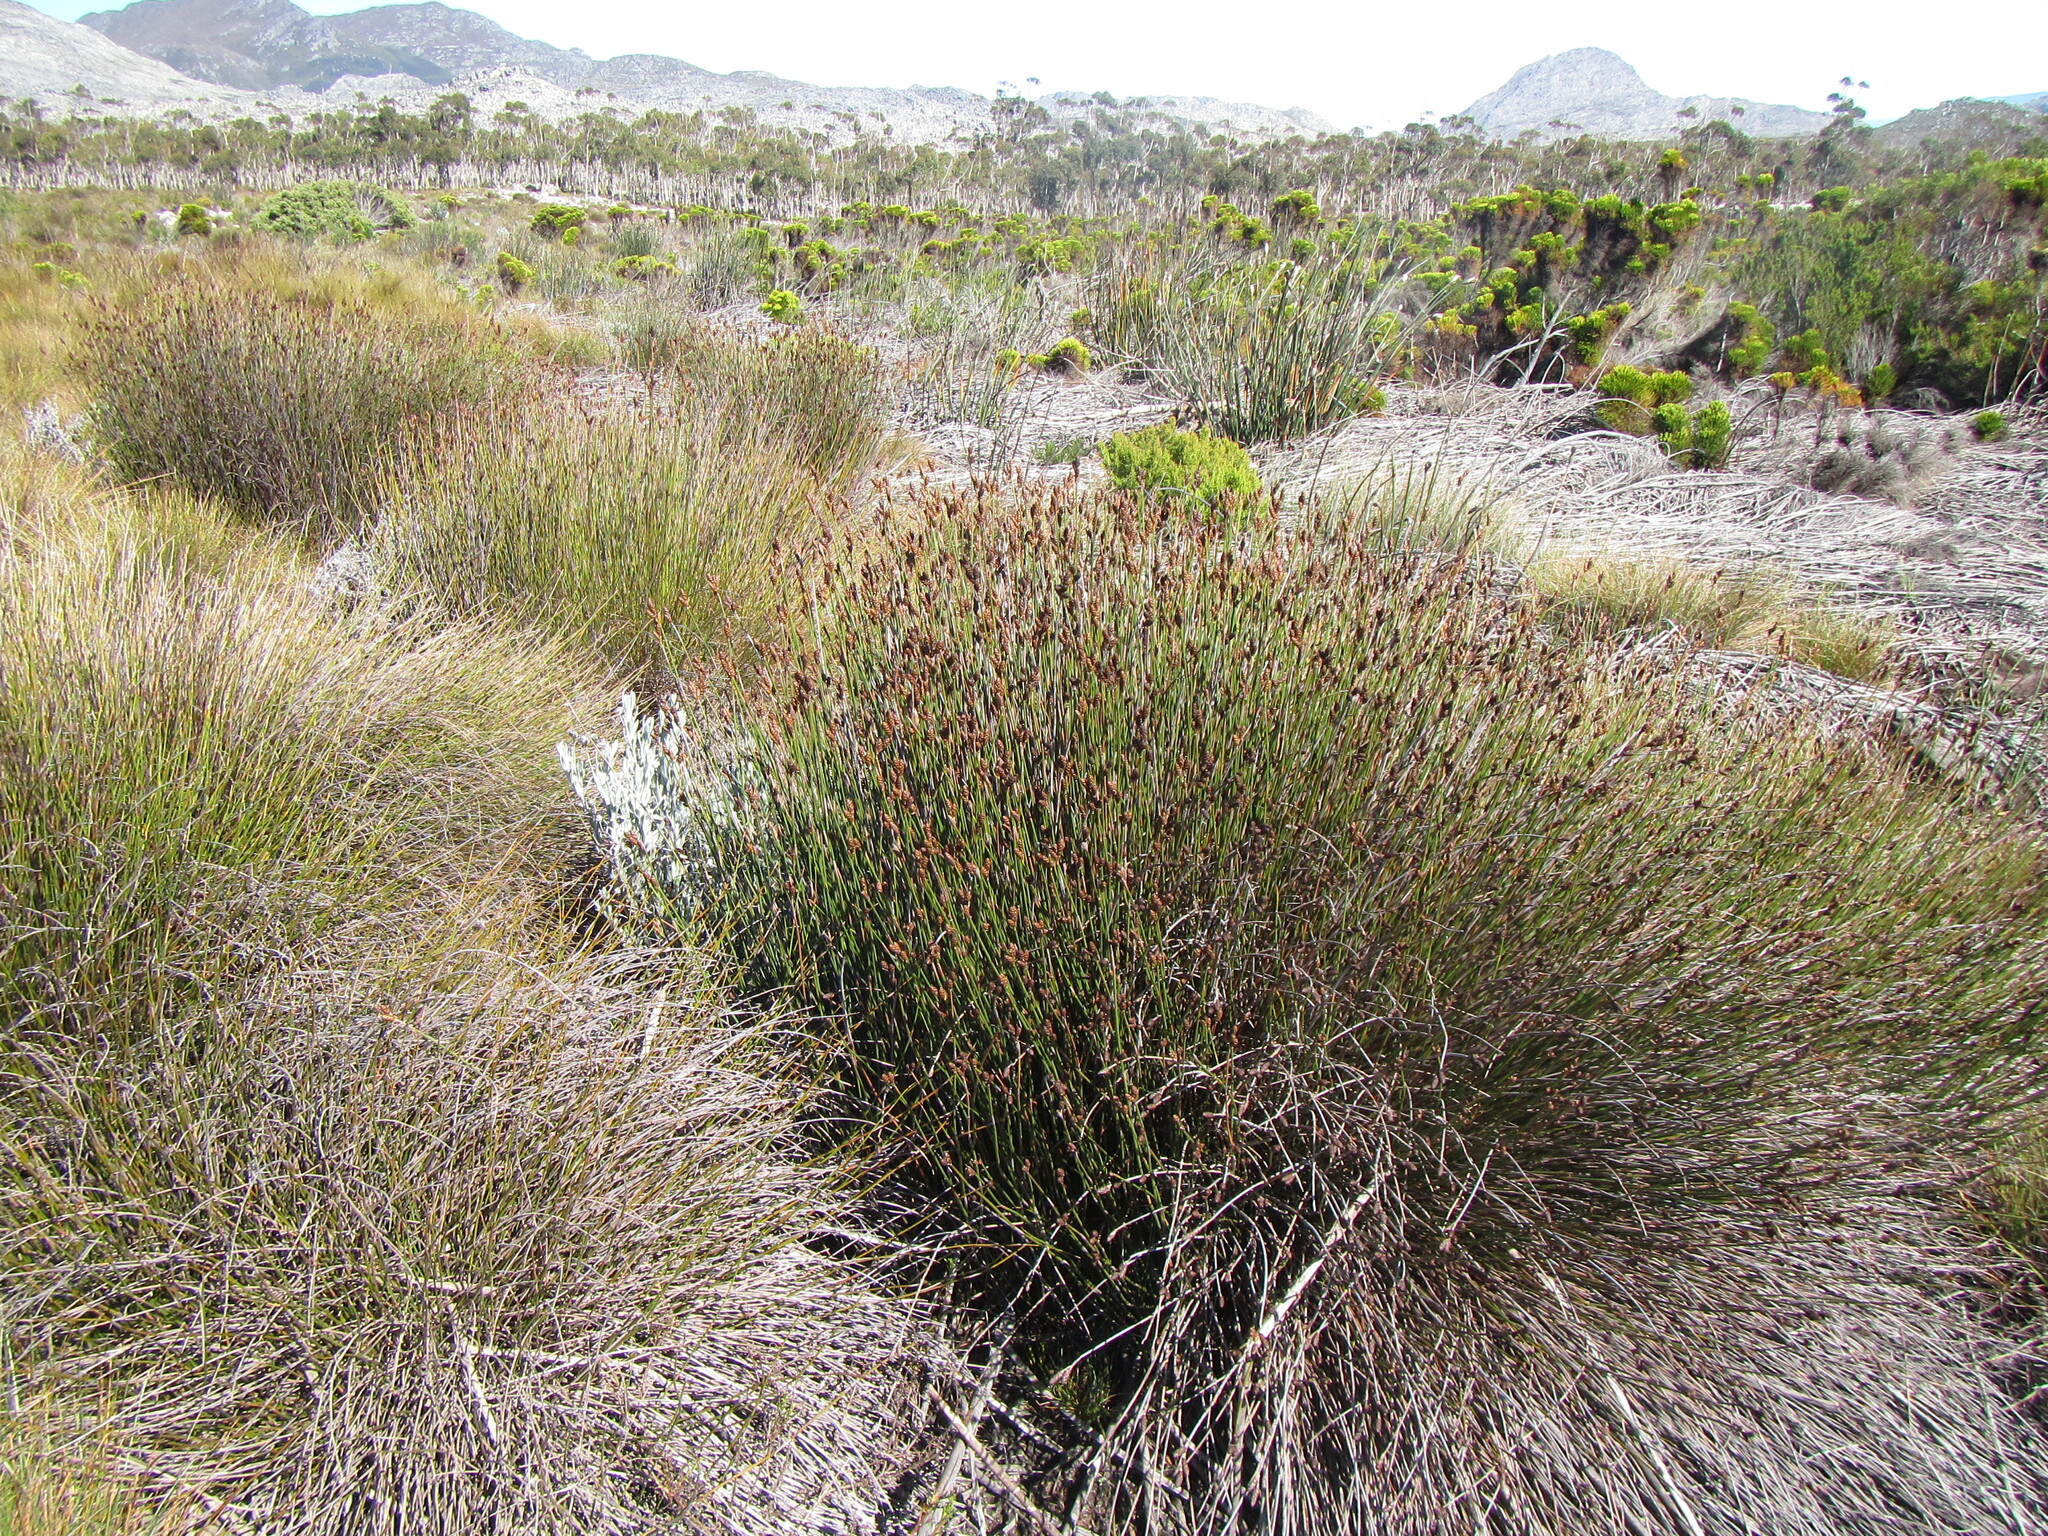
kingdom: Plantae
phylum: Tracheophyta
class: Liliopsida
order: Poales
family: Restionaceae
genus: Nevillea
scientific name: Nevillea obtusissimus
